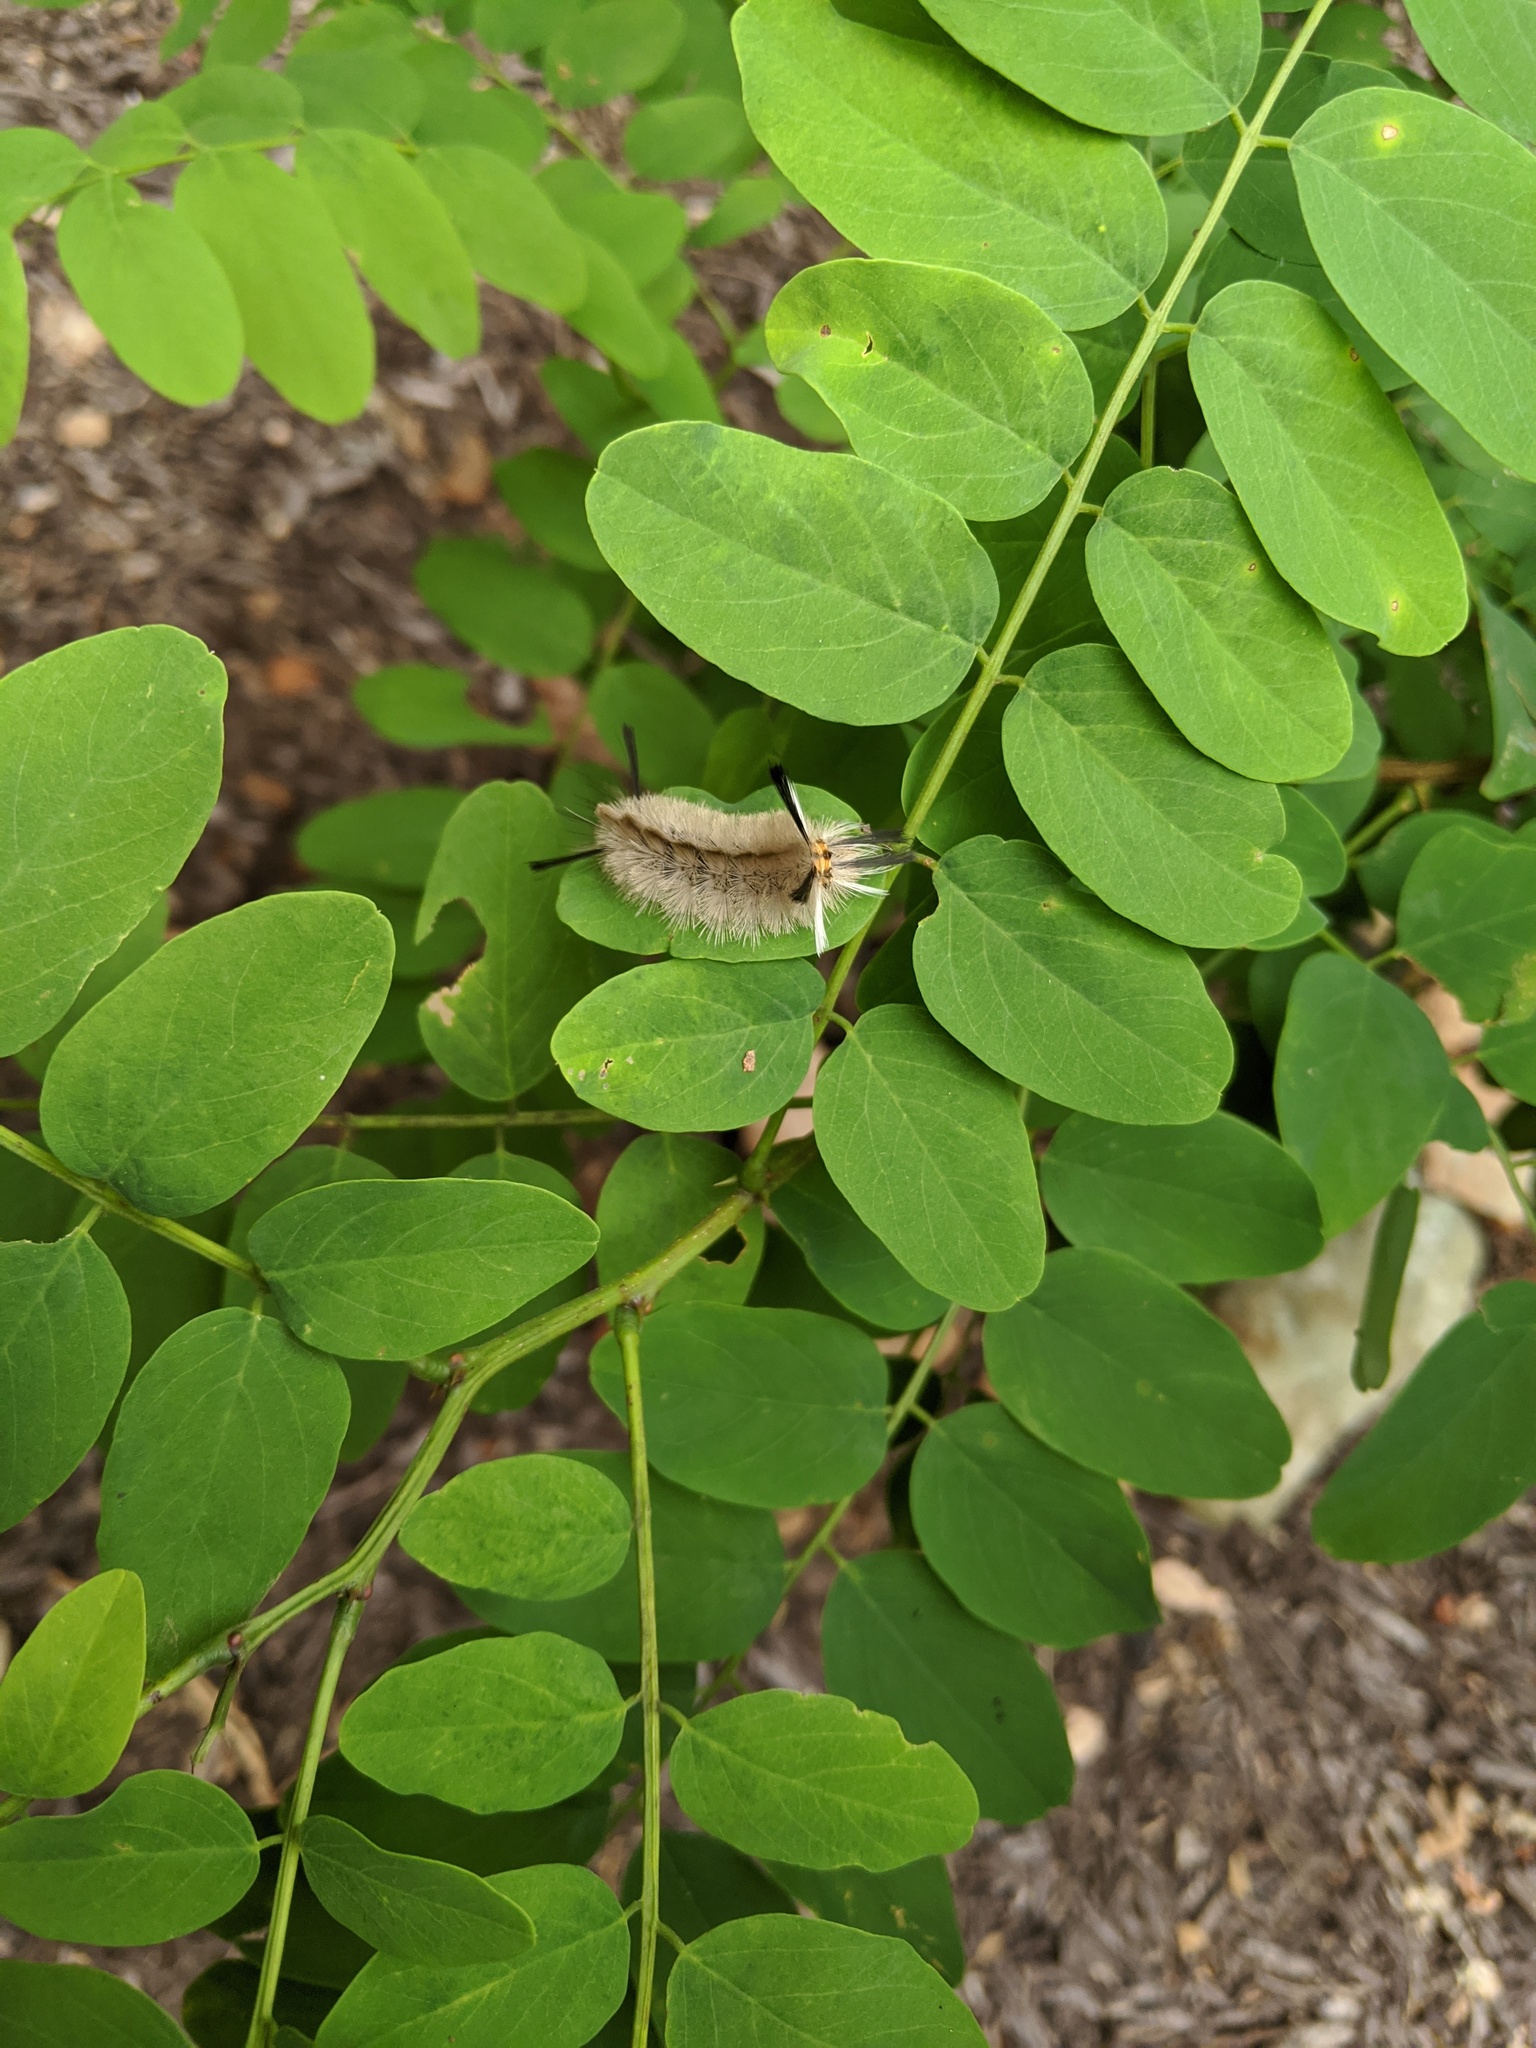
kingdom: Animalia
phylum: Arthropoda
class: Insecta
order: Lepidoptera
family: Erebidae
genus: Halysidota
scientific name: Halysidota tessellaris
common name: Banded tussock moth
